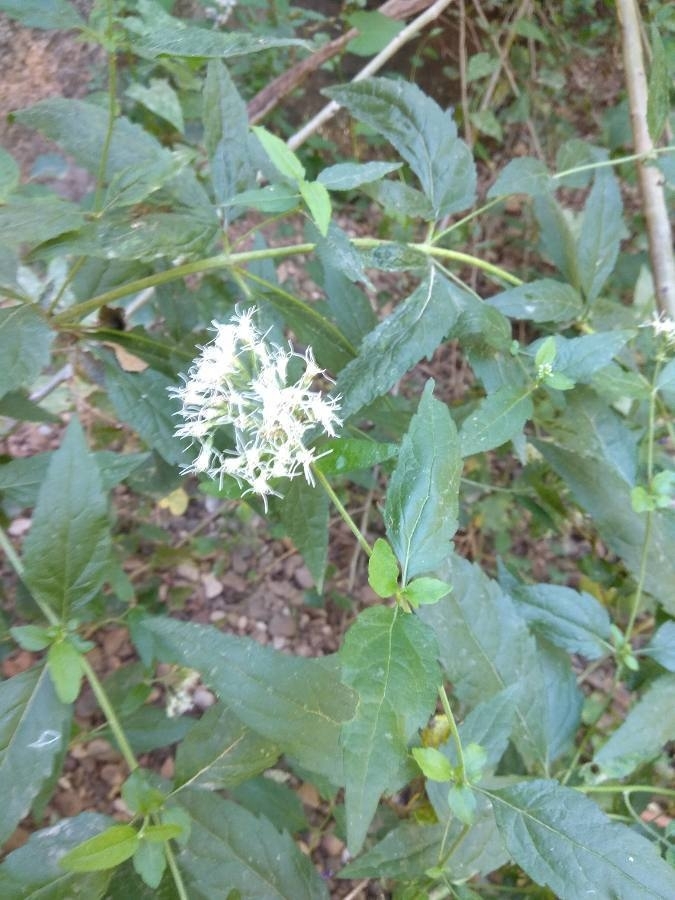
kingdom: Plantae
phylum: Tracheophyta
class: Magnoliopsida
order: Asterales
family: Asteraceae
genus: Eupatorium
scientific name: Eupatorium cannabinum
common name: Hemp-agrimony
